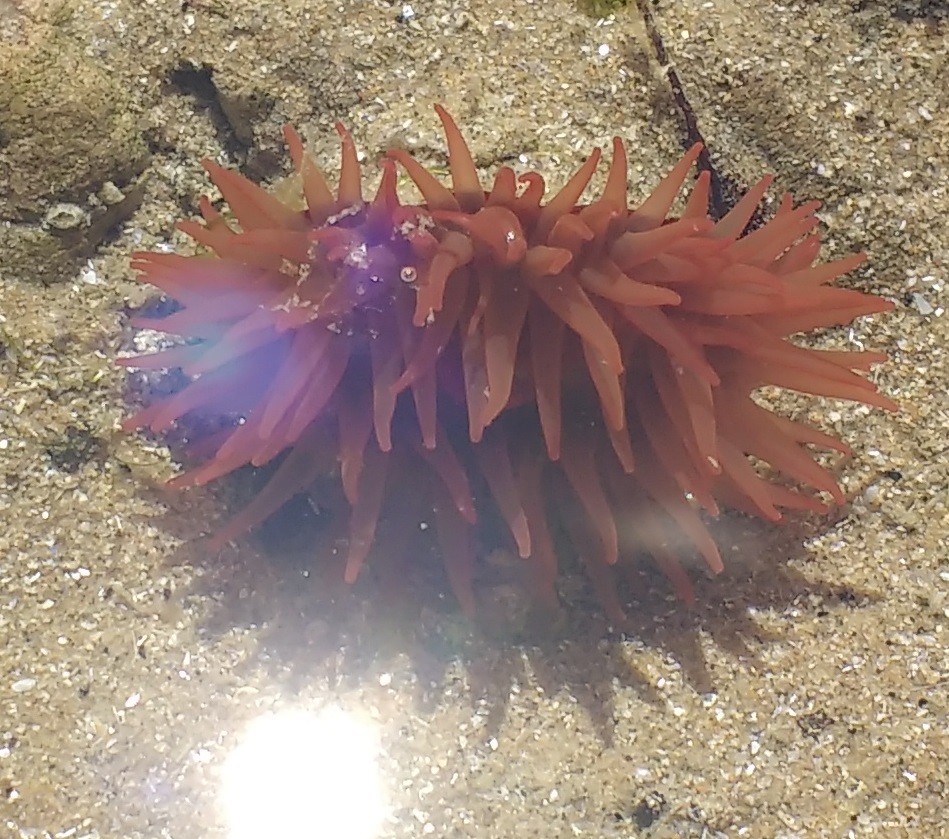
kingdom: Animalia
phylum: Cnidaria
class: Anthozoa
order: Actiniaria
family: Actiniidae
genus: Actinia
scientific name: Actinia equina
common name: Beadlet anemone
